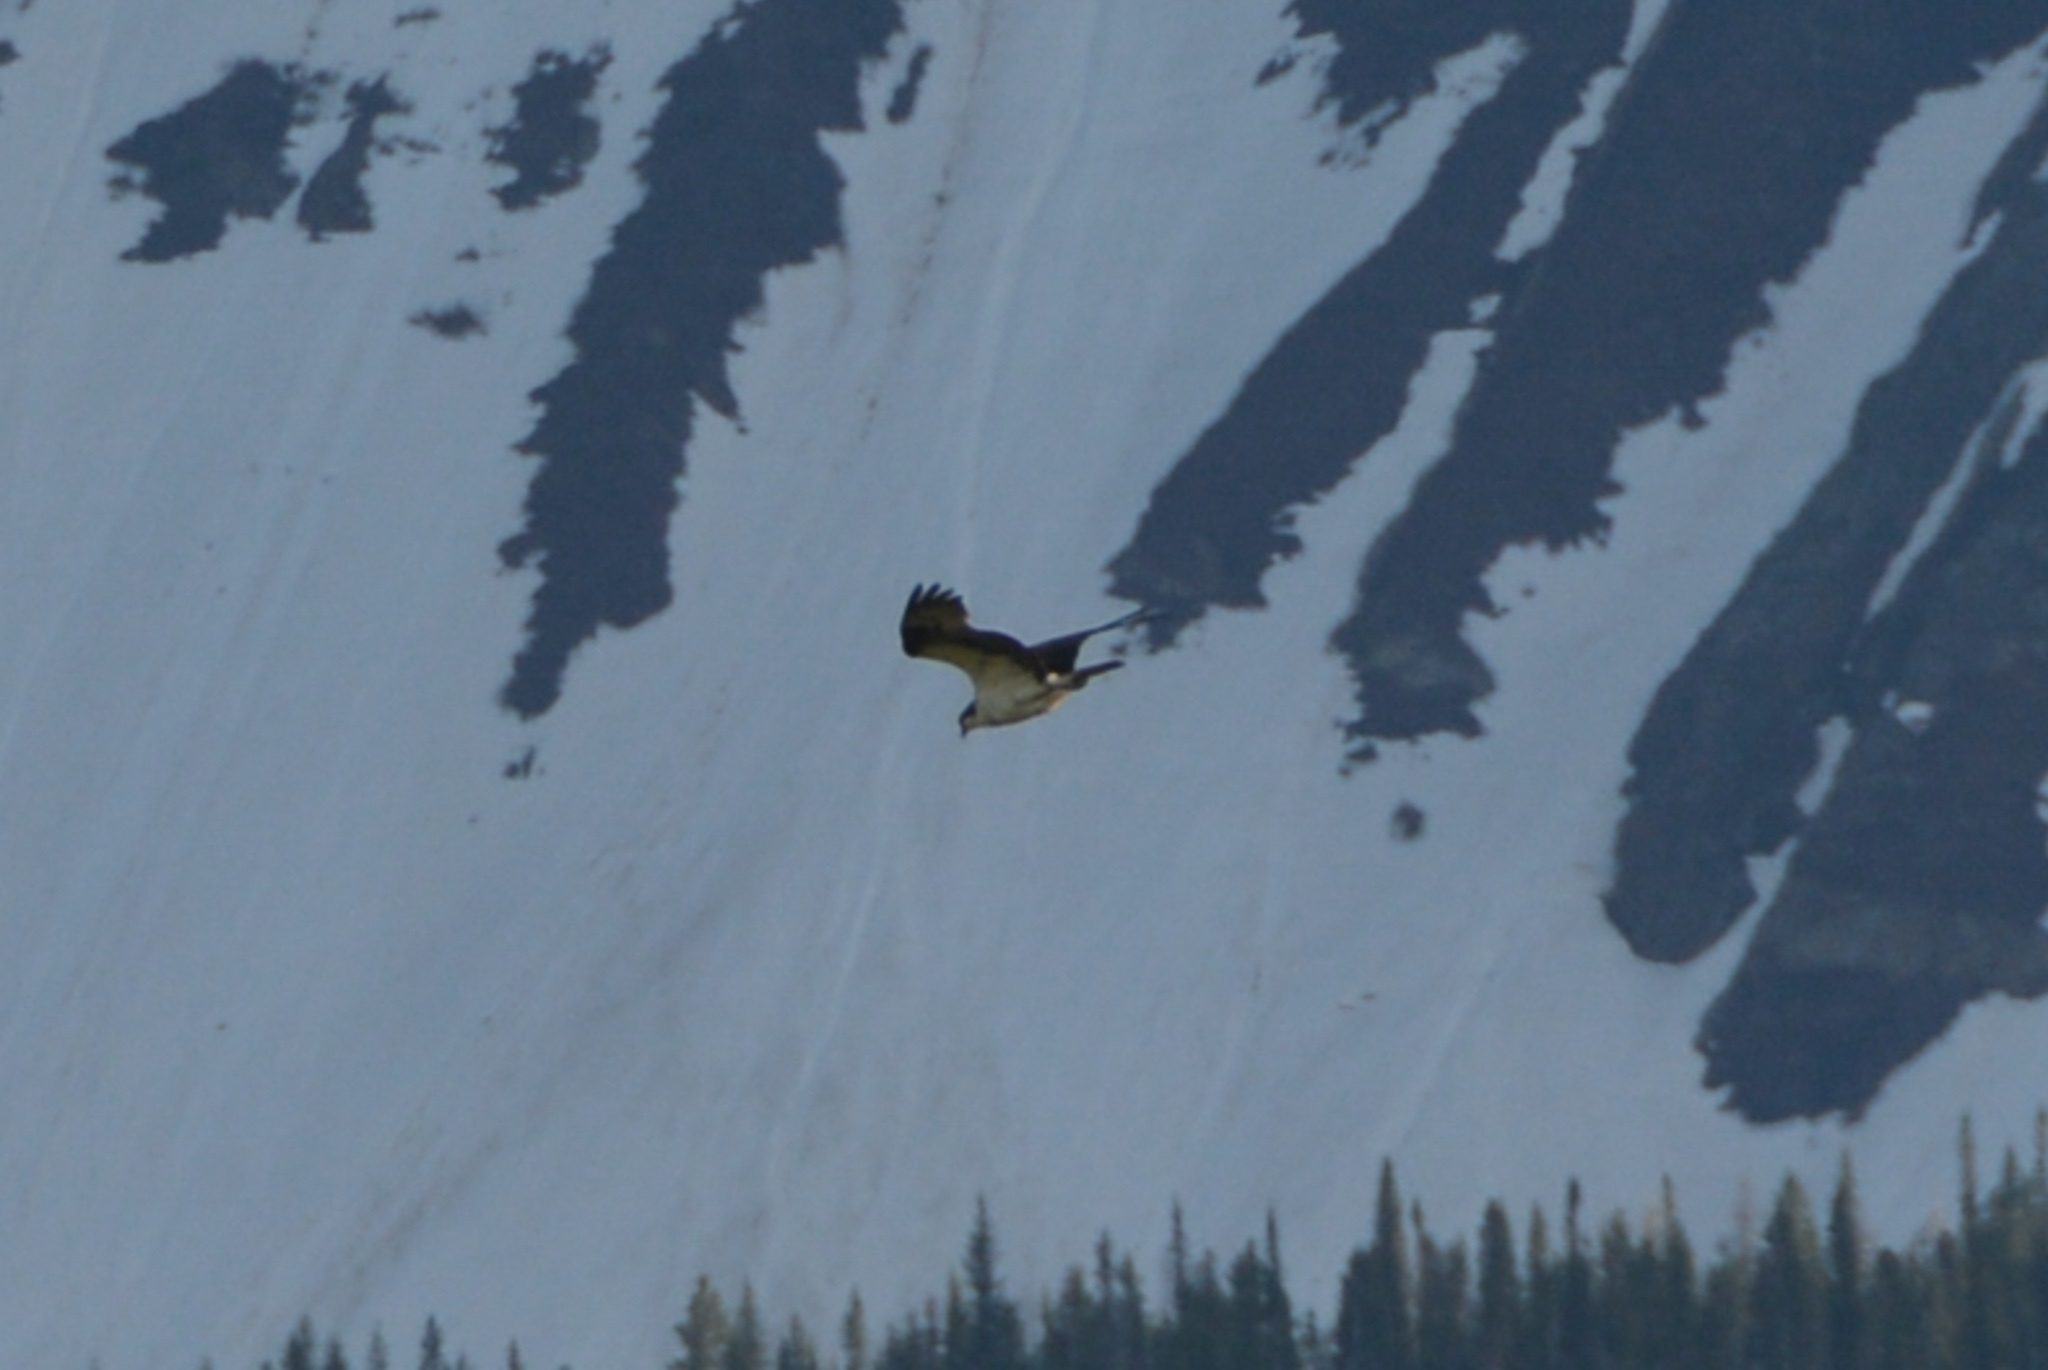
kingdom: Animalia
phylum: Chordata
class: Aves
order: Accipitriformes
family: Pandionidae
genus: Pandion
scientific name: Pandion haliaetus
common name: Osprey
